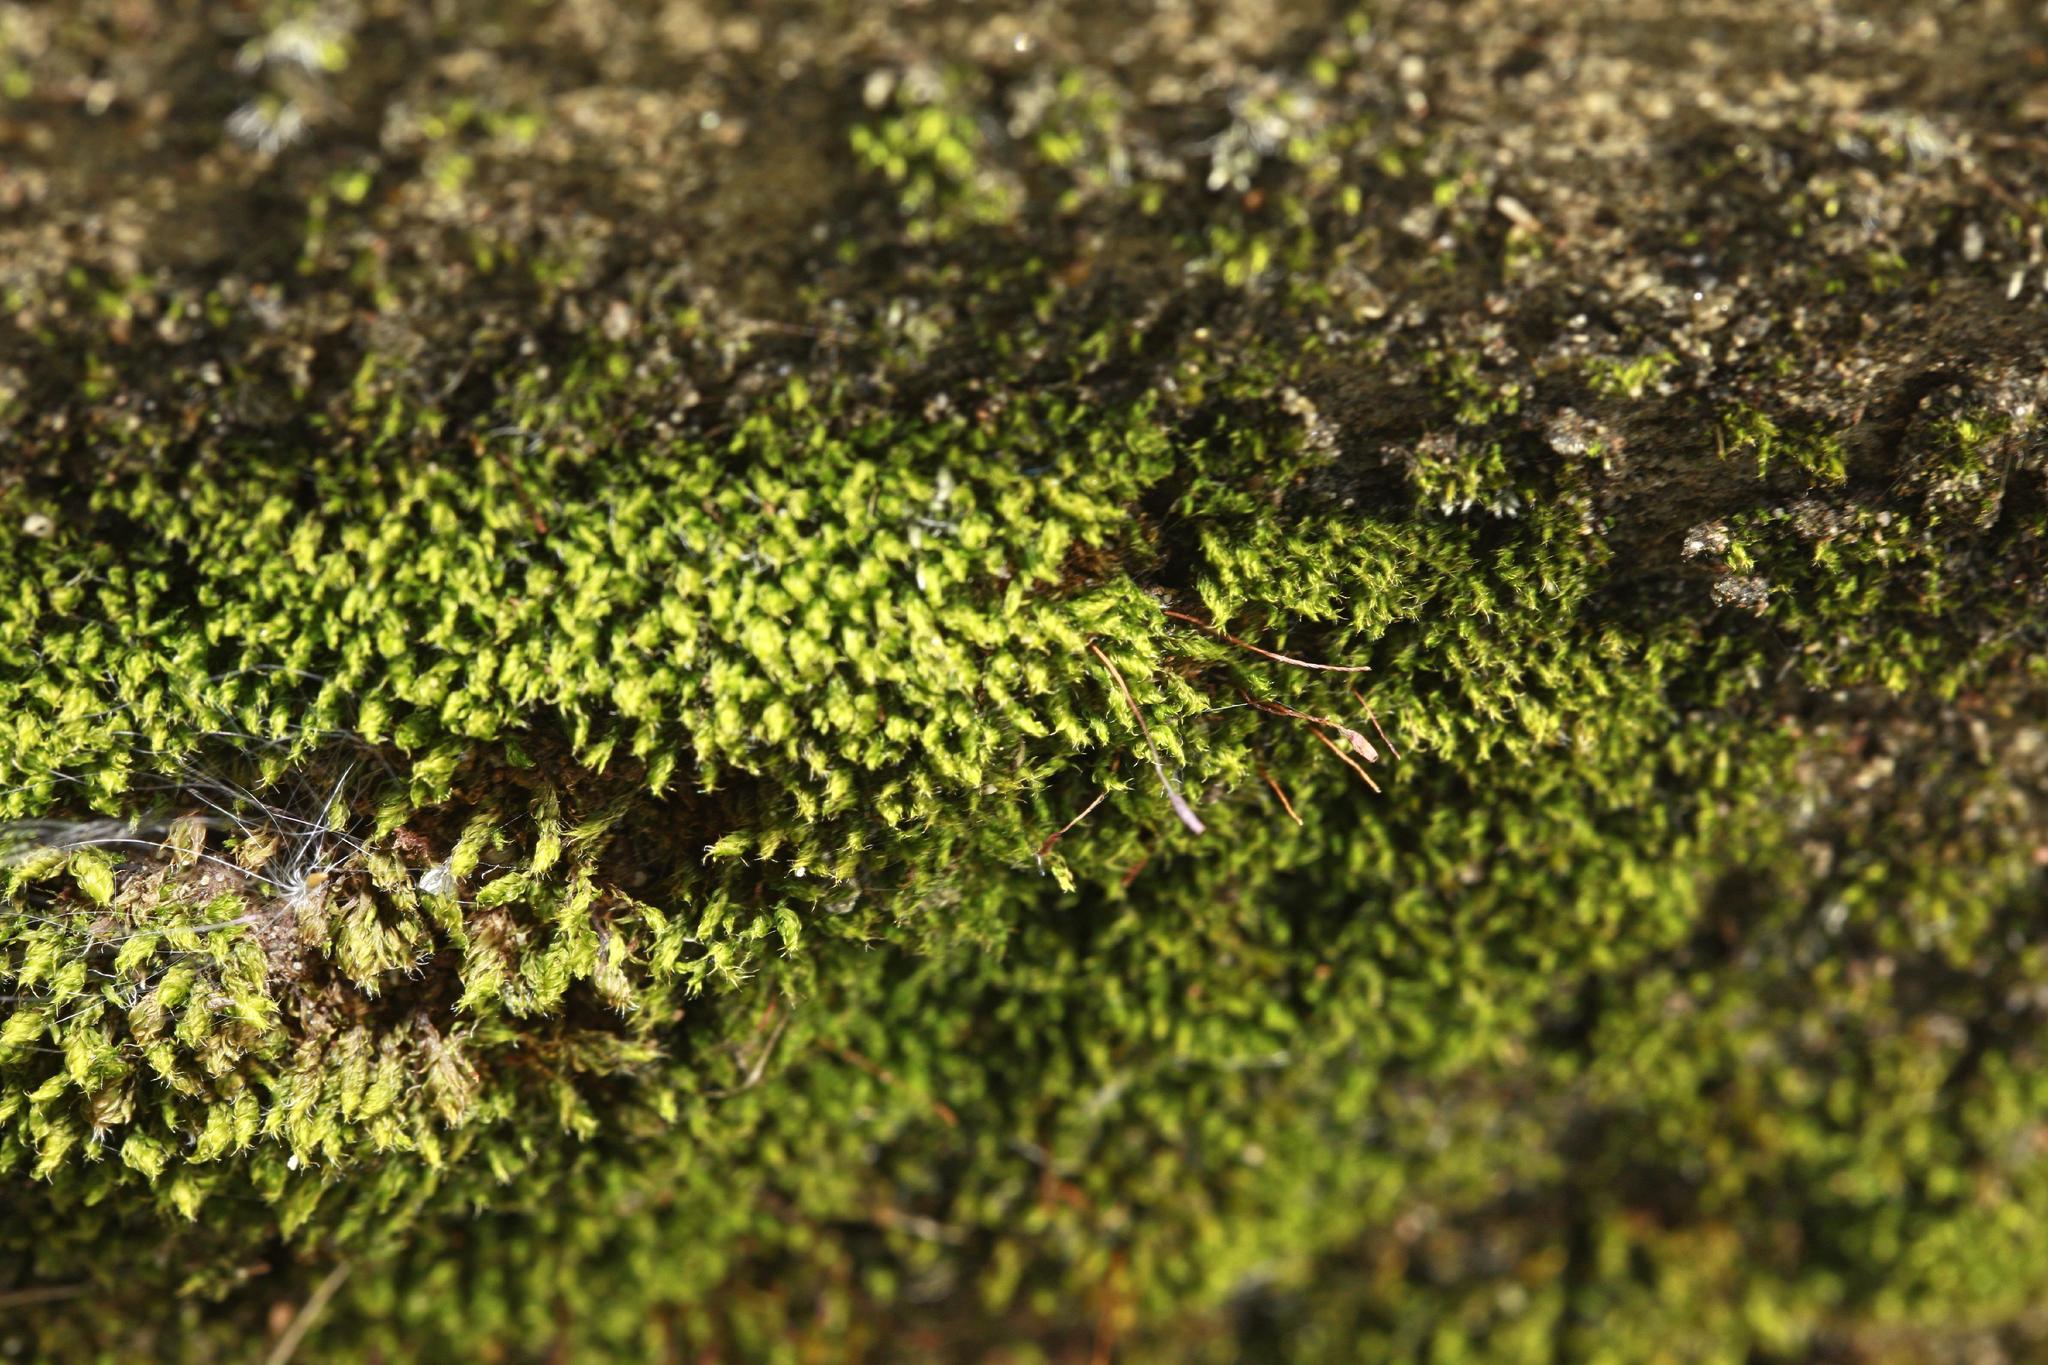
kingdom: Plantae
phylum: Bryophyta
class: Bryopsida
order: Bryales
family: Bryaceae
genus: Rosulabryum
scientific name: Rosulabryum capillare
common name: Capillary thread-moss
